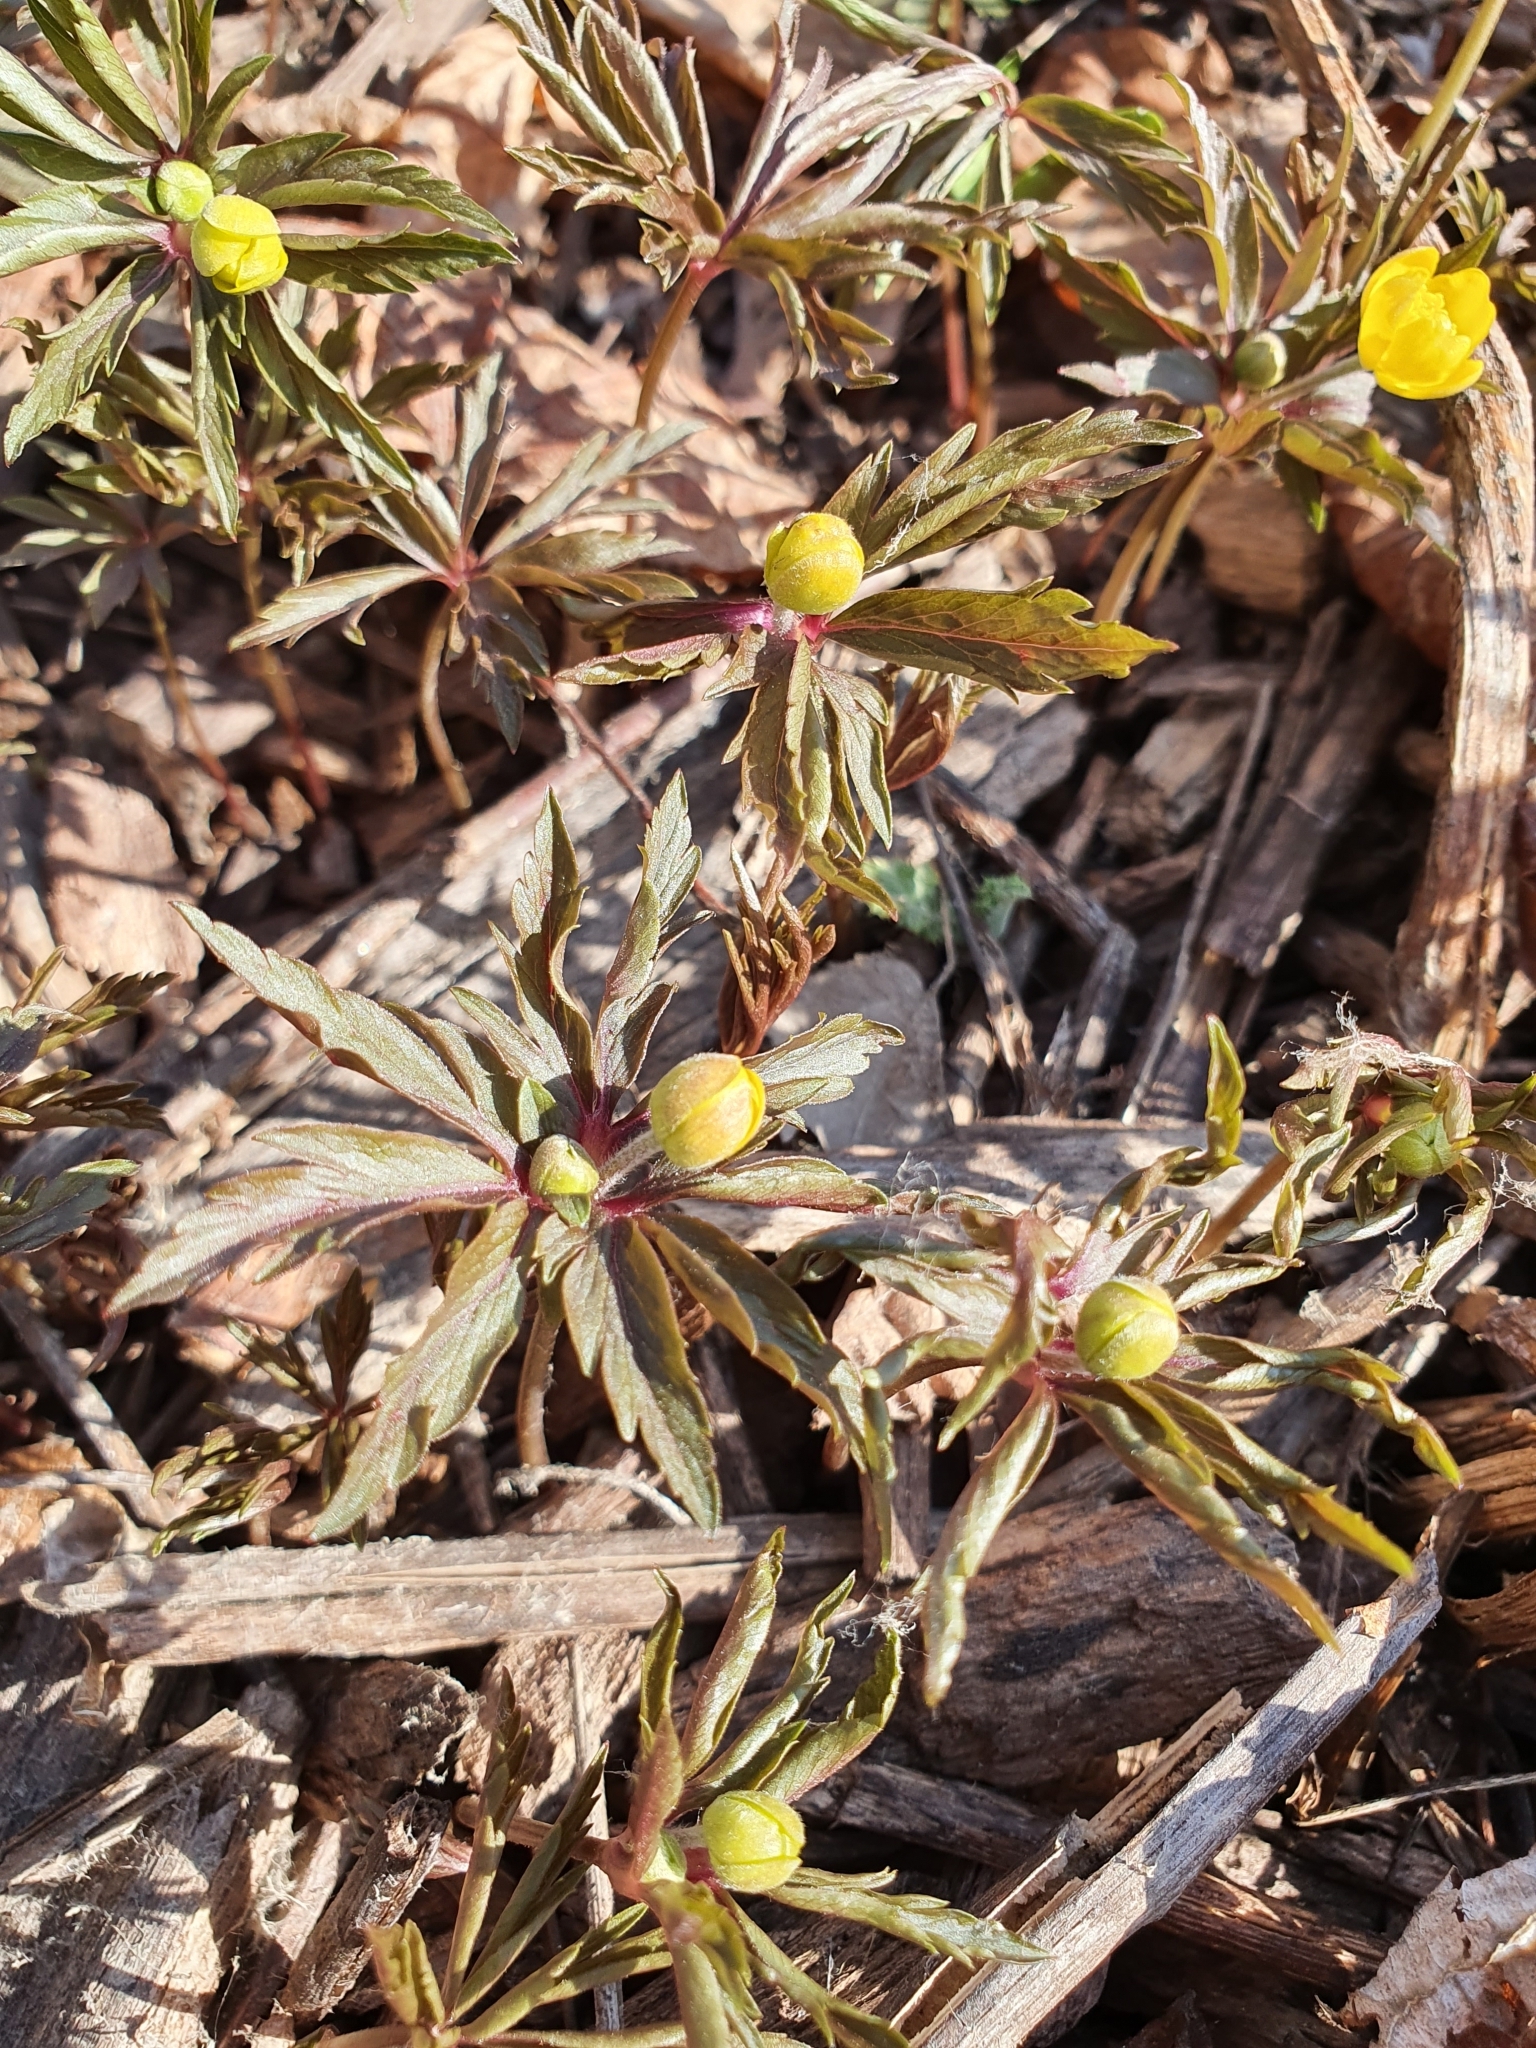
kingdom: Plantae
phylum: Tracheophyta
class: Magnoliopsida
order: Ranunculales
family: Ranunculaceae
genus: Anemone
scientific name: Anemone ranunculoides
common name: Yellow anemone
